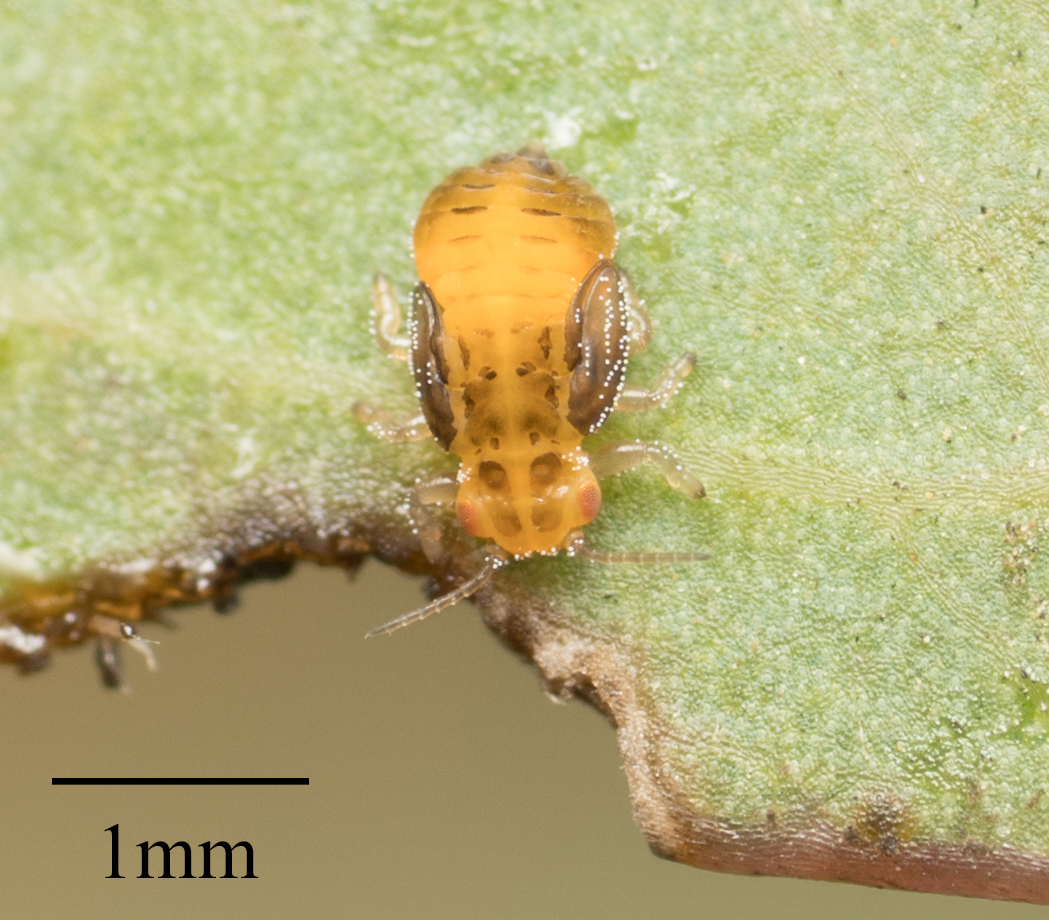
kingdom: Animalia
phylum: Arthropoda
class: Insecta
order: Hemiptera
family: Aphalaridae
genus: Glycaspis
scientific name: Glycaspis brimblecombei
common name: Red gum lerp psyllid
